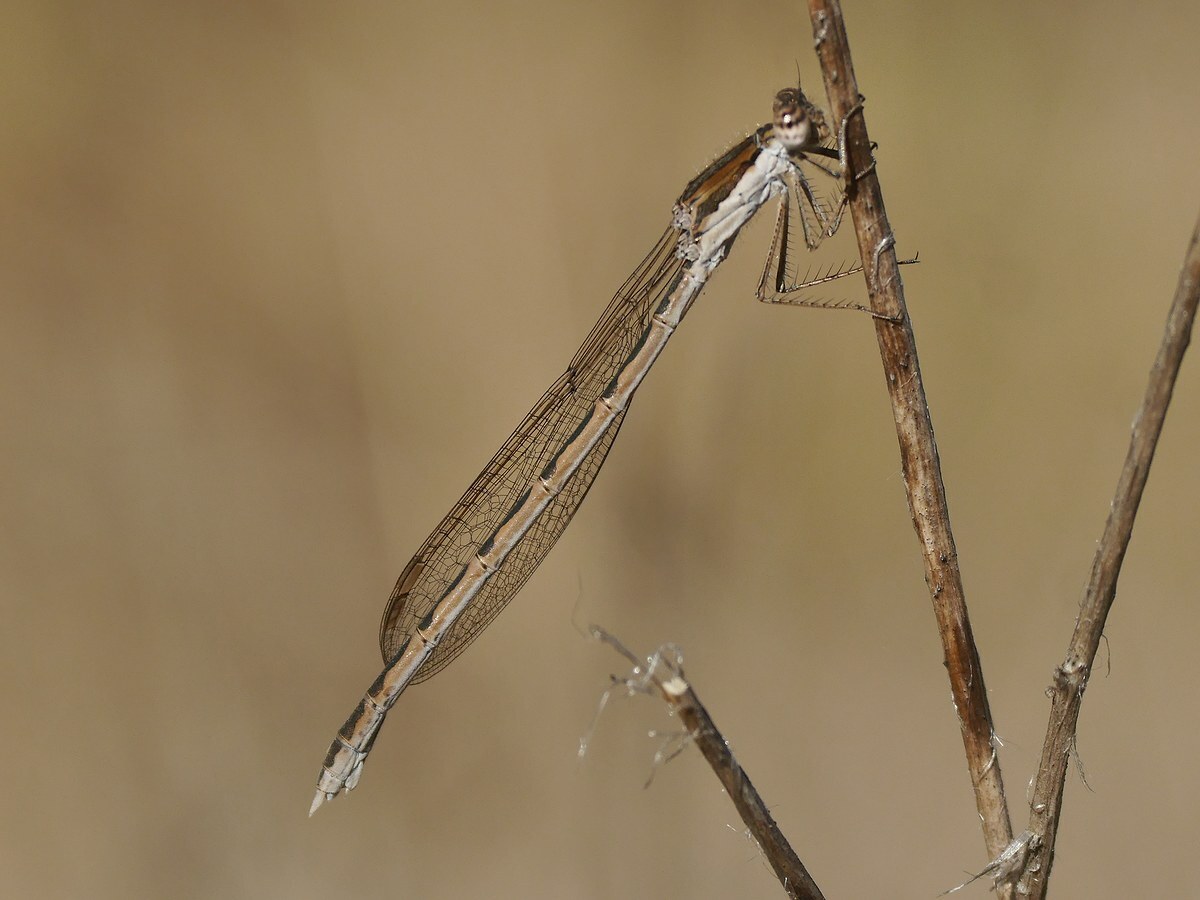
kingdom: Animalia
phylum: Arthropoda
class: Insecta
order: Odonata
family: Lestidae
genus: Sympecma
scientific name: Sympecma fusca
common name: Common winter damsel
